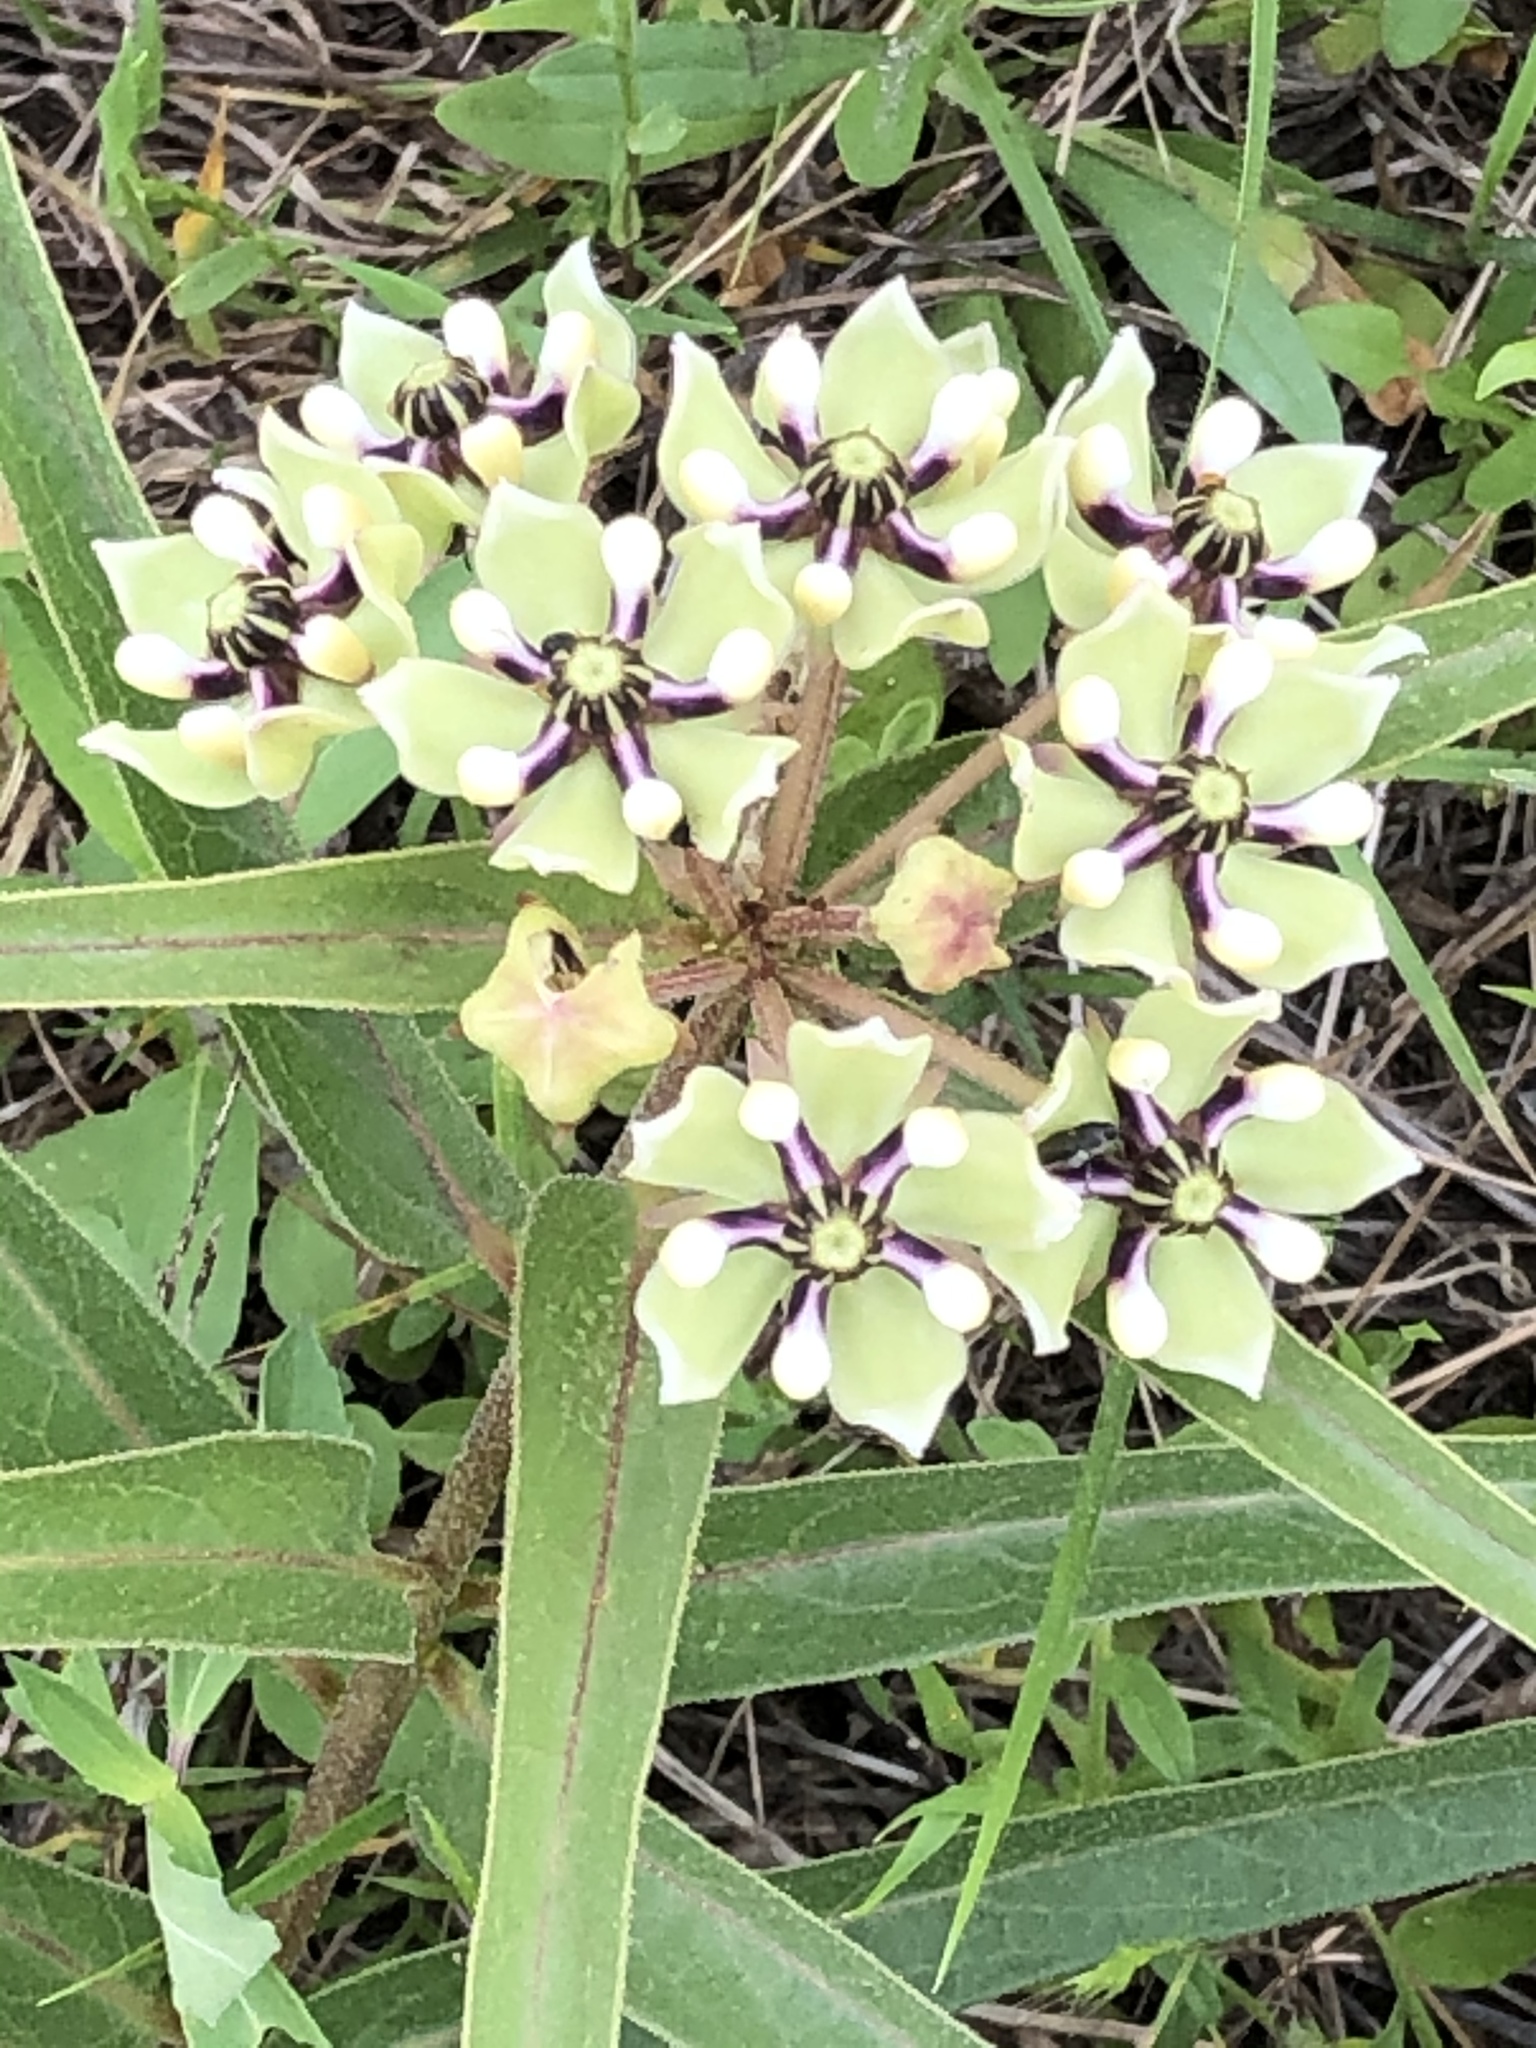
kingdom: Plantae
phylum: Tracheophyta
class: Magnoliopsida
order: Gentianales
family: Apocynaceae
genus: Asclepias
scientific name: Asclepias asperula
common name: Antelope horns
